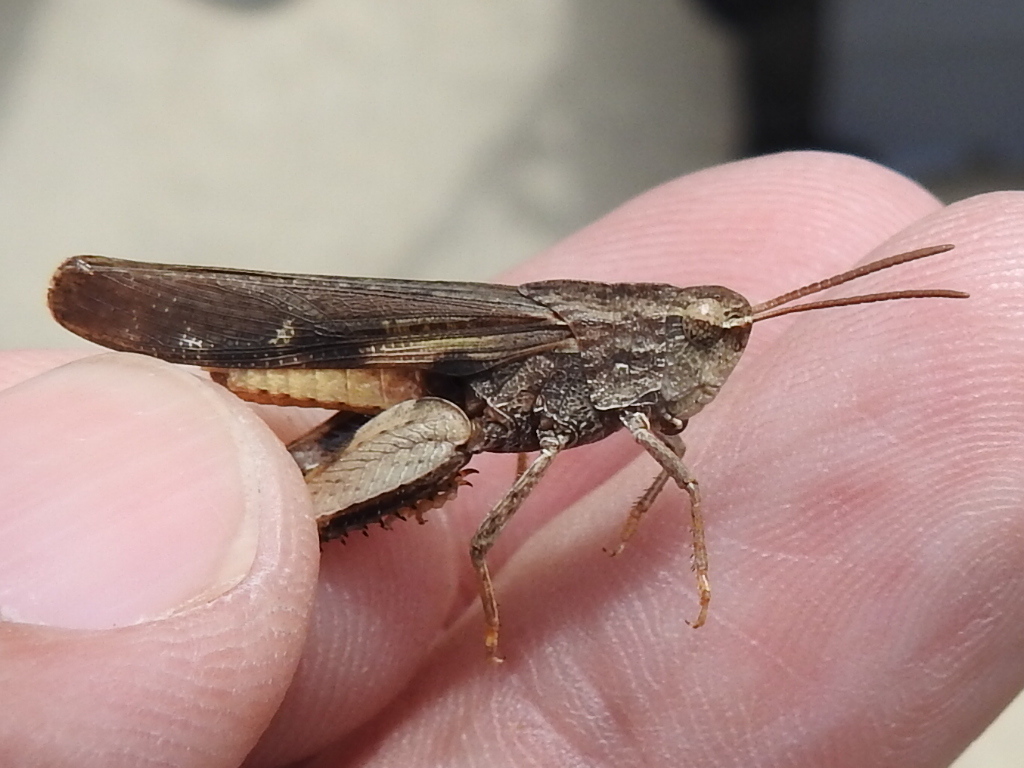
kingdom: Animalia
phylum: Arthropoda
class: Insecta
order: Orthoptera
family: Acrididae
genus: Chortophaga
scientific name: Chortophaga viridifasciata
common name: Green-striped grasshopper
